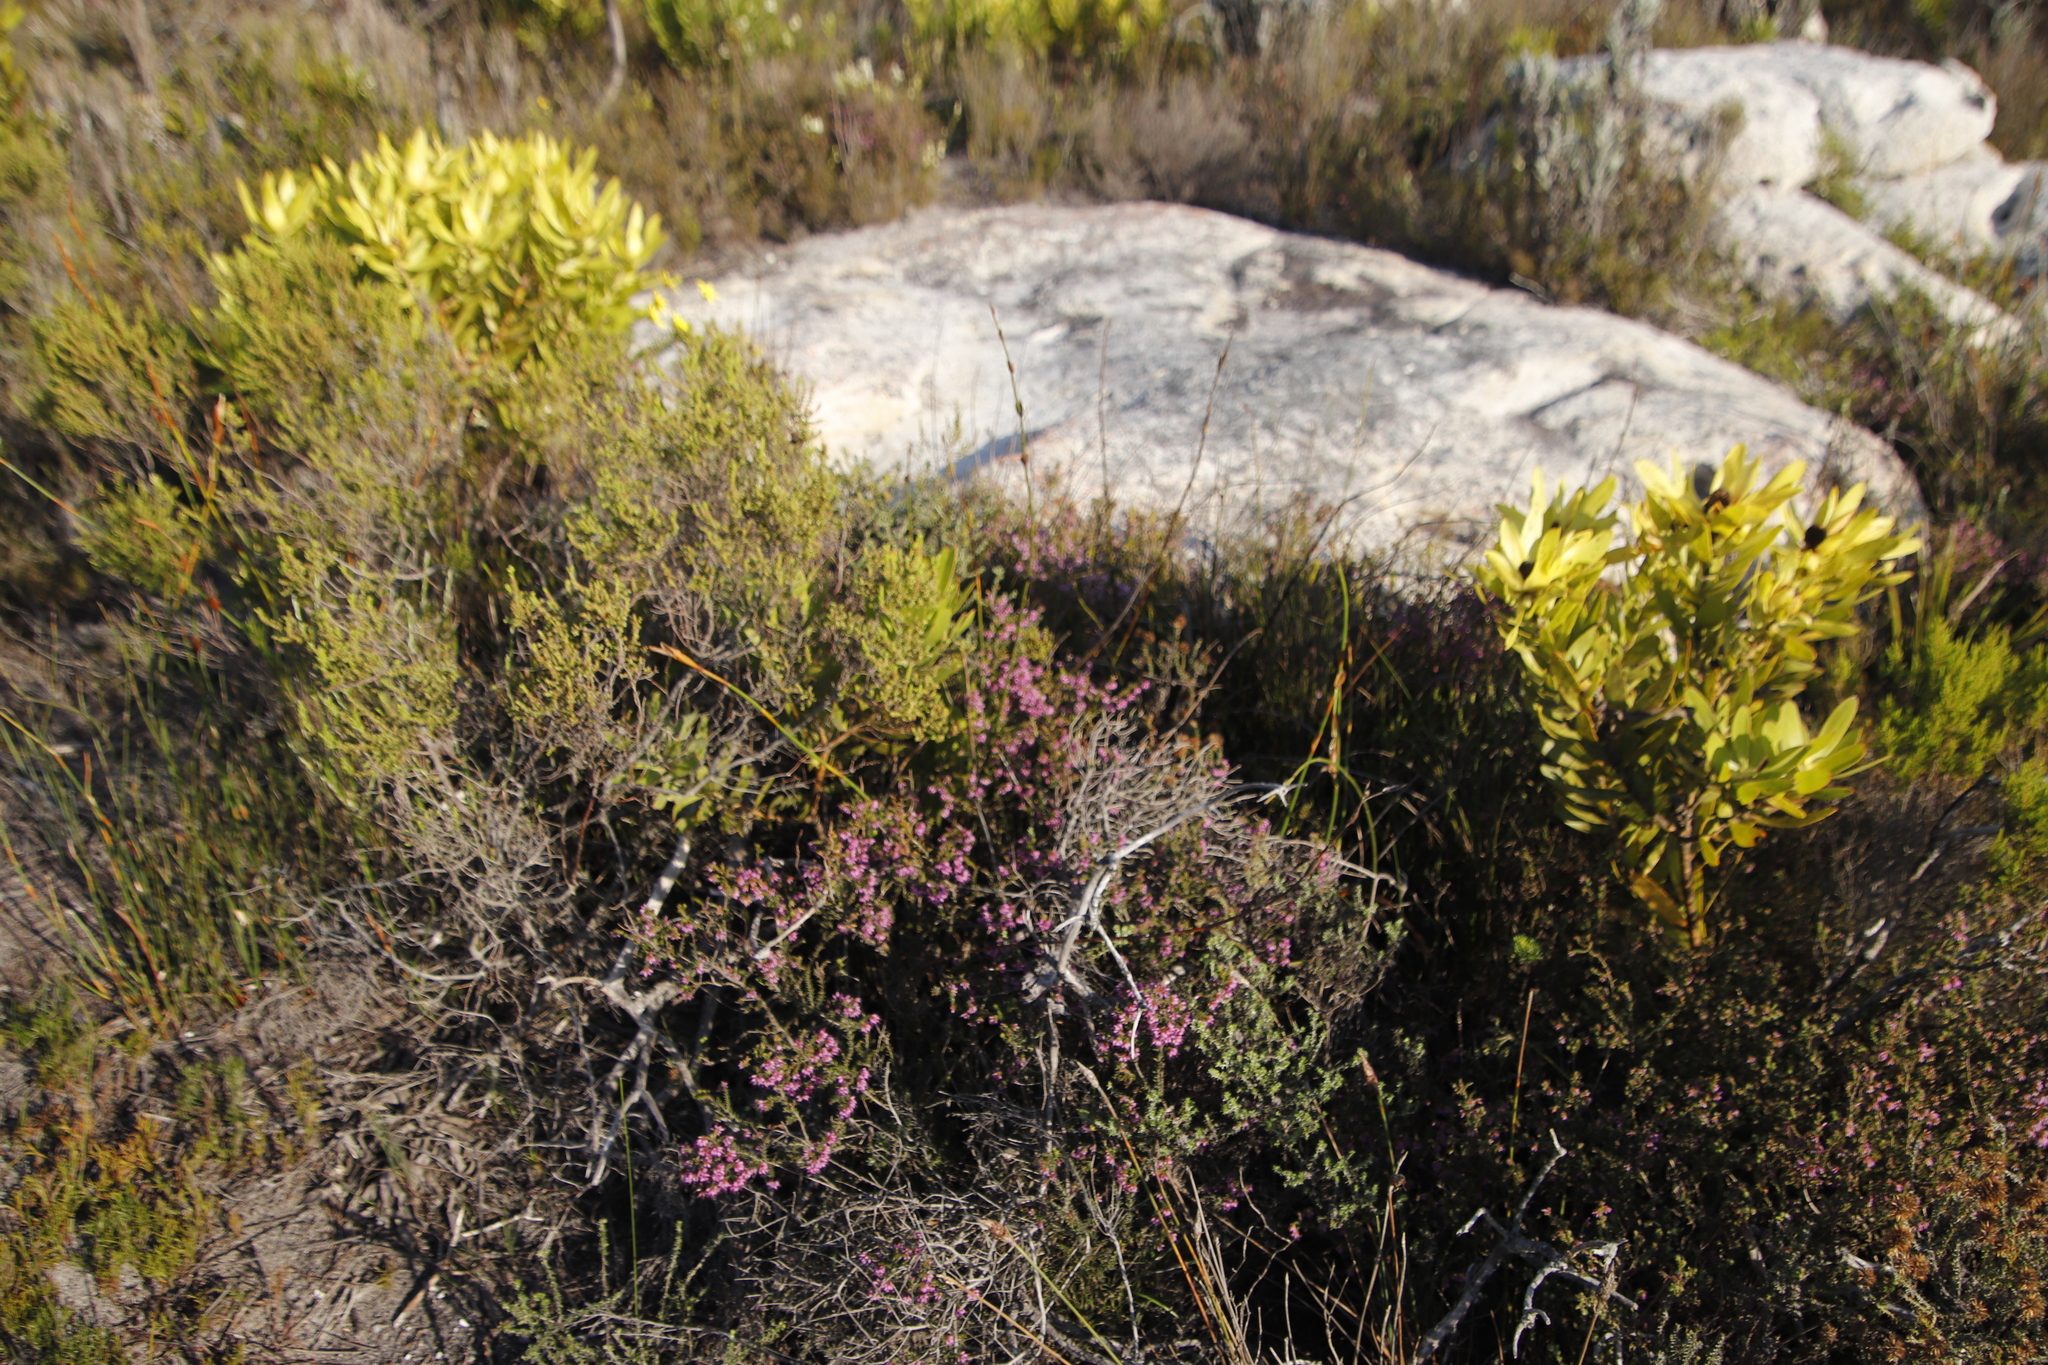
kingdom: Plantae
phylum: Tracheophyta
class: Magnoliopsida
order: Ericales
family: Ericaceae
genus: Erica
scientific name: Erica glabella
